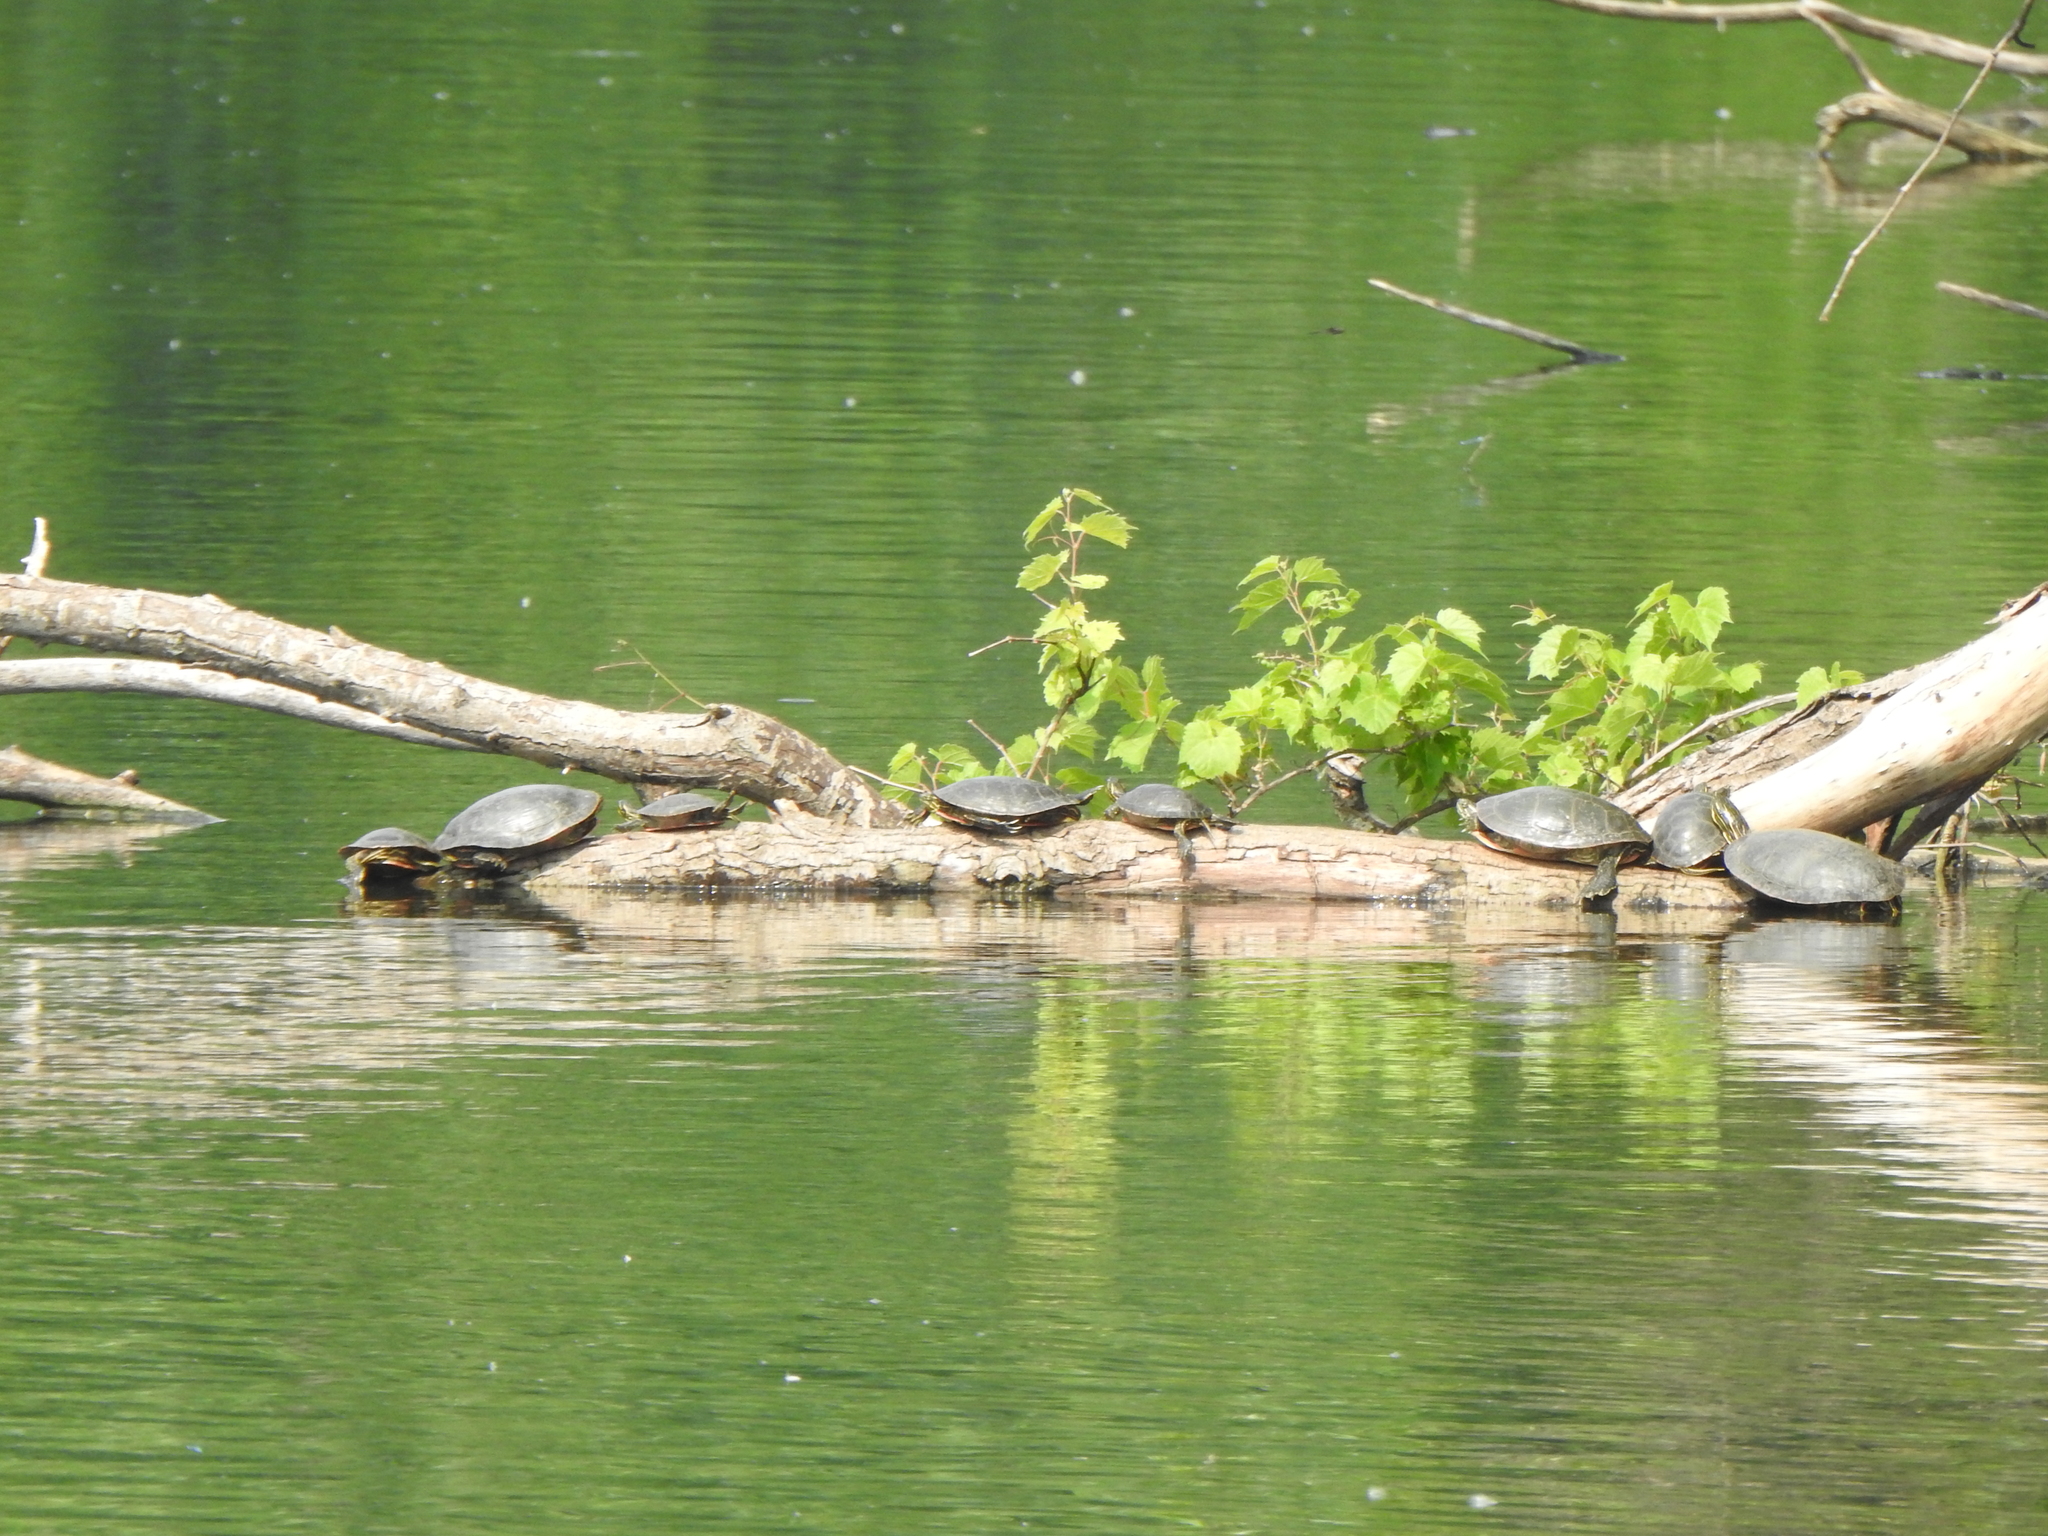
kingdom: Animalia
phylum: Chordata
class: Testudines
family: Emydidae
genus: Chrysemys
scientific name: Chrysemys picta
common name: Painted turtle
